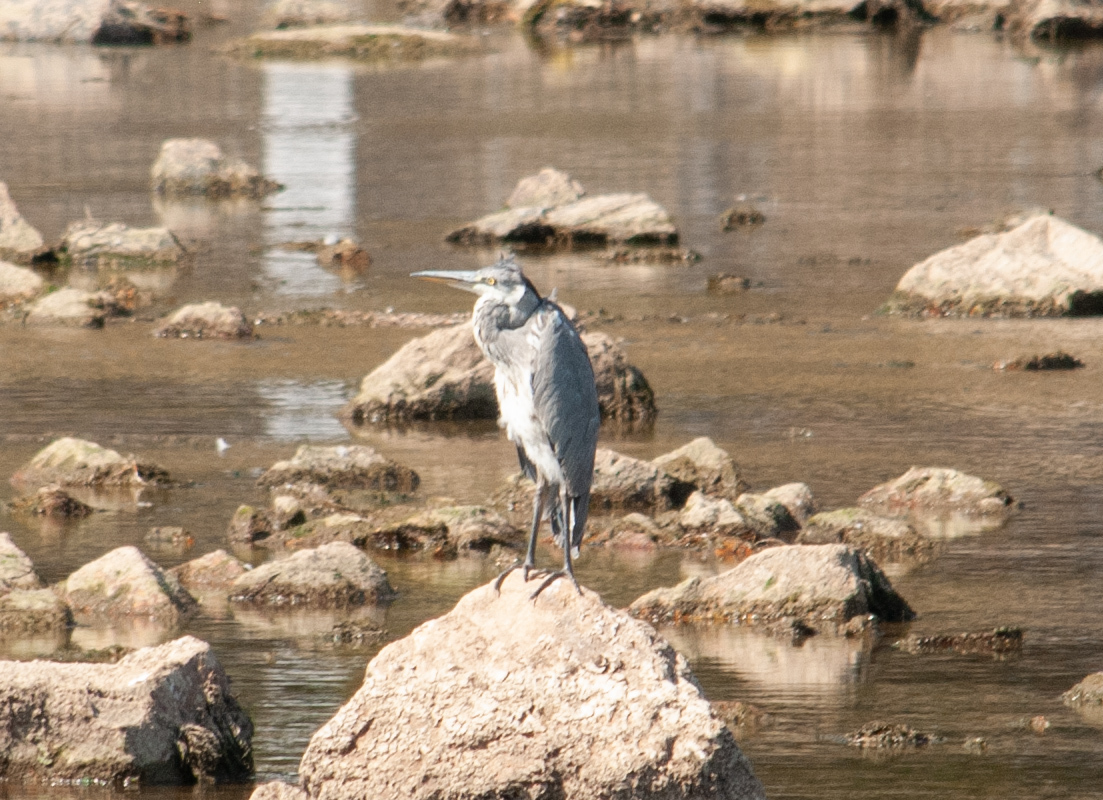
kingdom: Animalia
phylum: Chordata
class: Aves
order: Pelecaniformes
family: Ardeidae
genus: Ardea
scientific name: Ardea cinerea
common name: Grey heron
